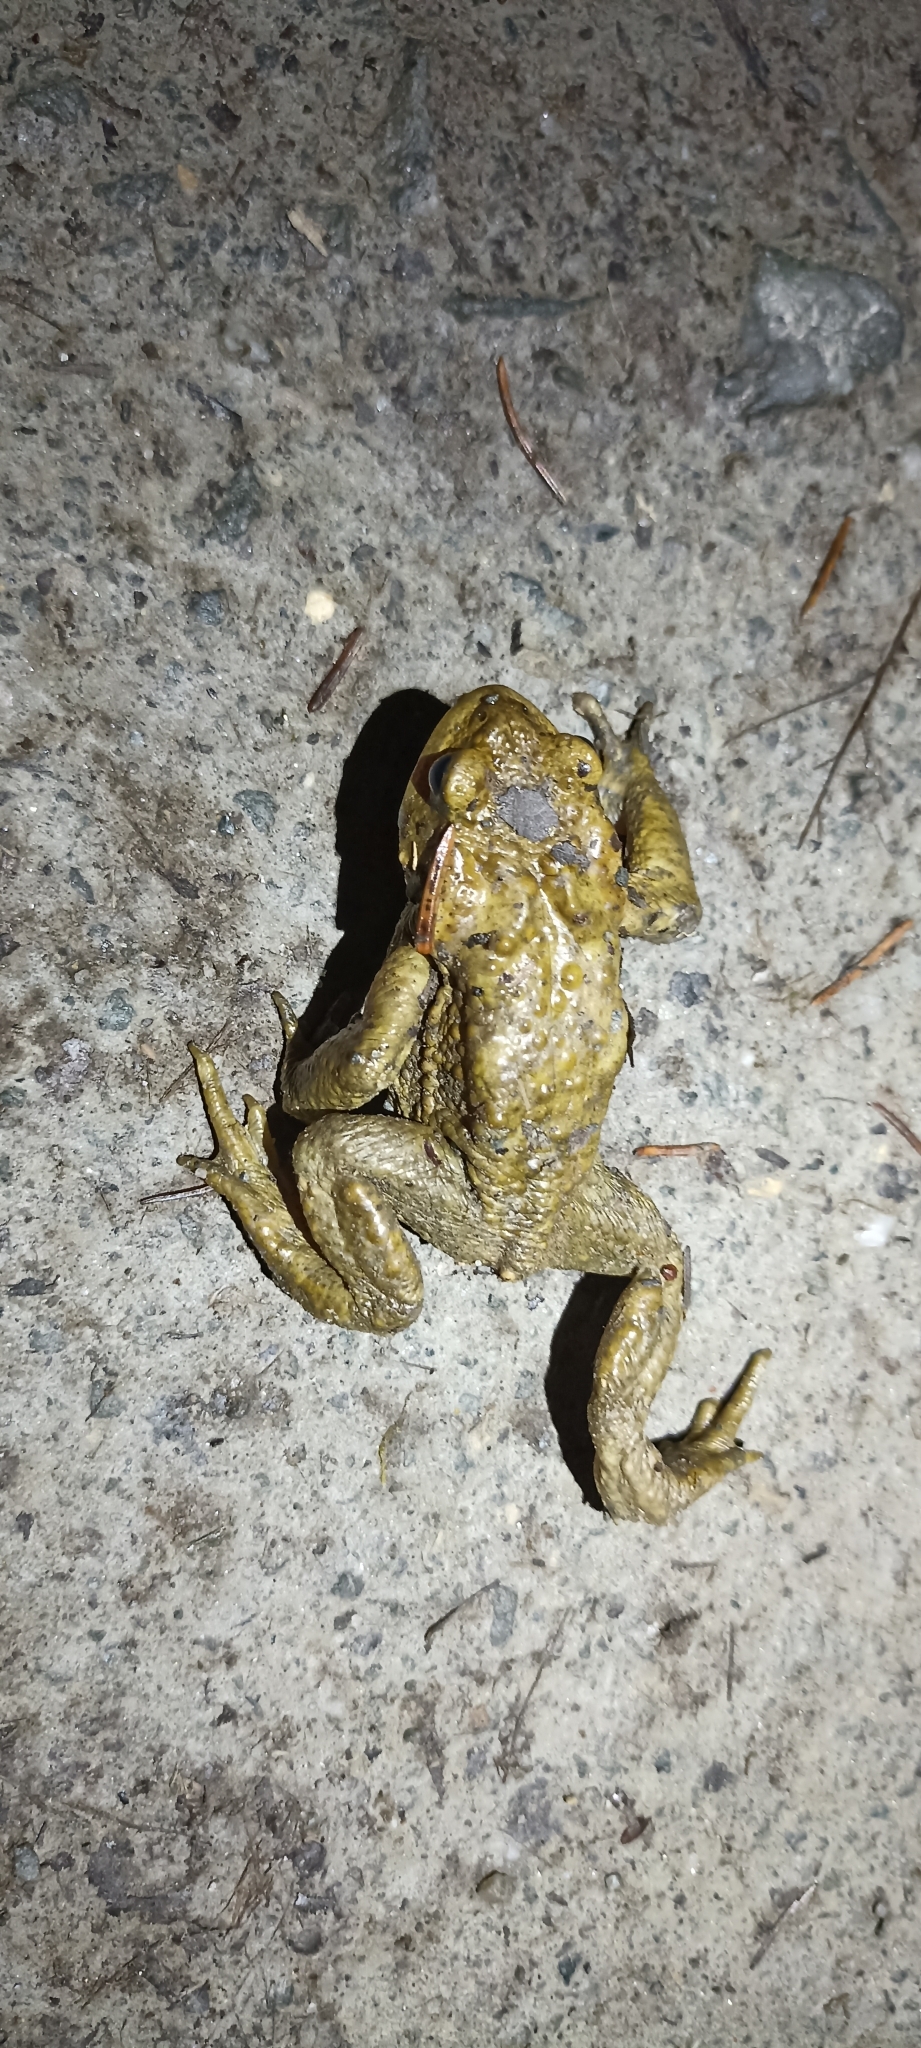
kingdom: Animalia
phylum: Chordata
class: Amphibia
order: Anura
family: Bufonidae
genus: Bufo
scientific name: Bufo spinosus
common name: Western common toad
